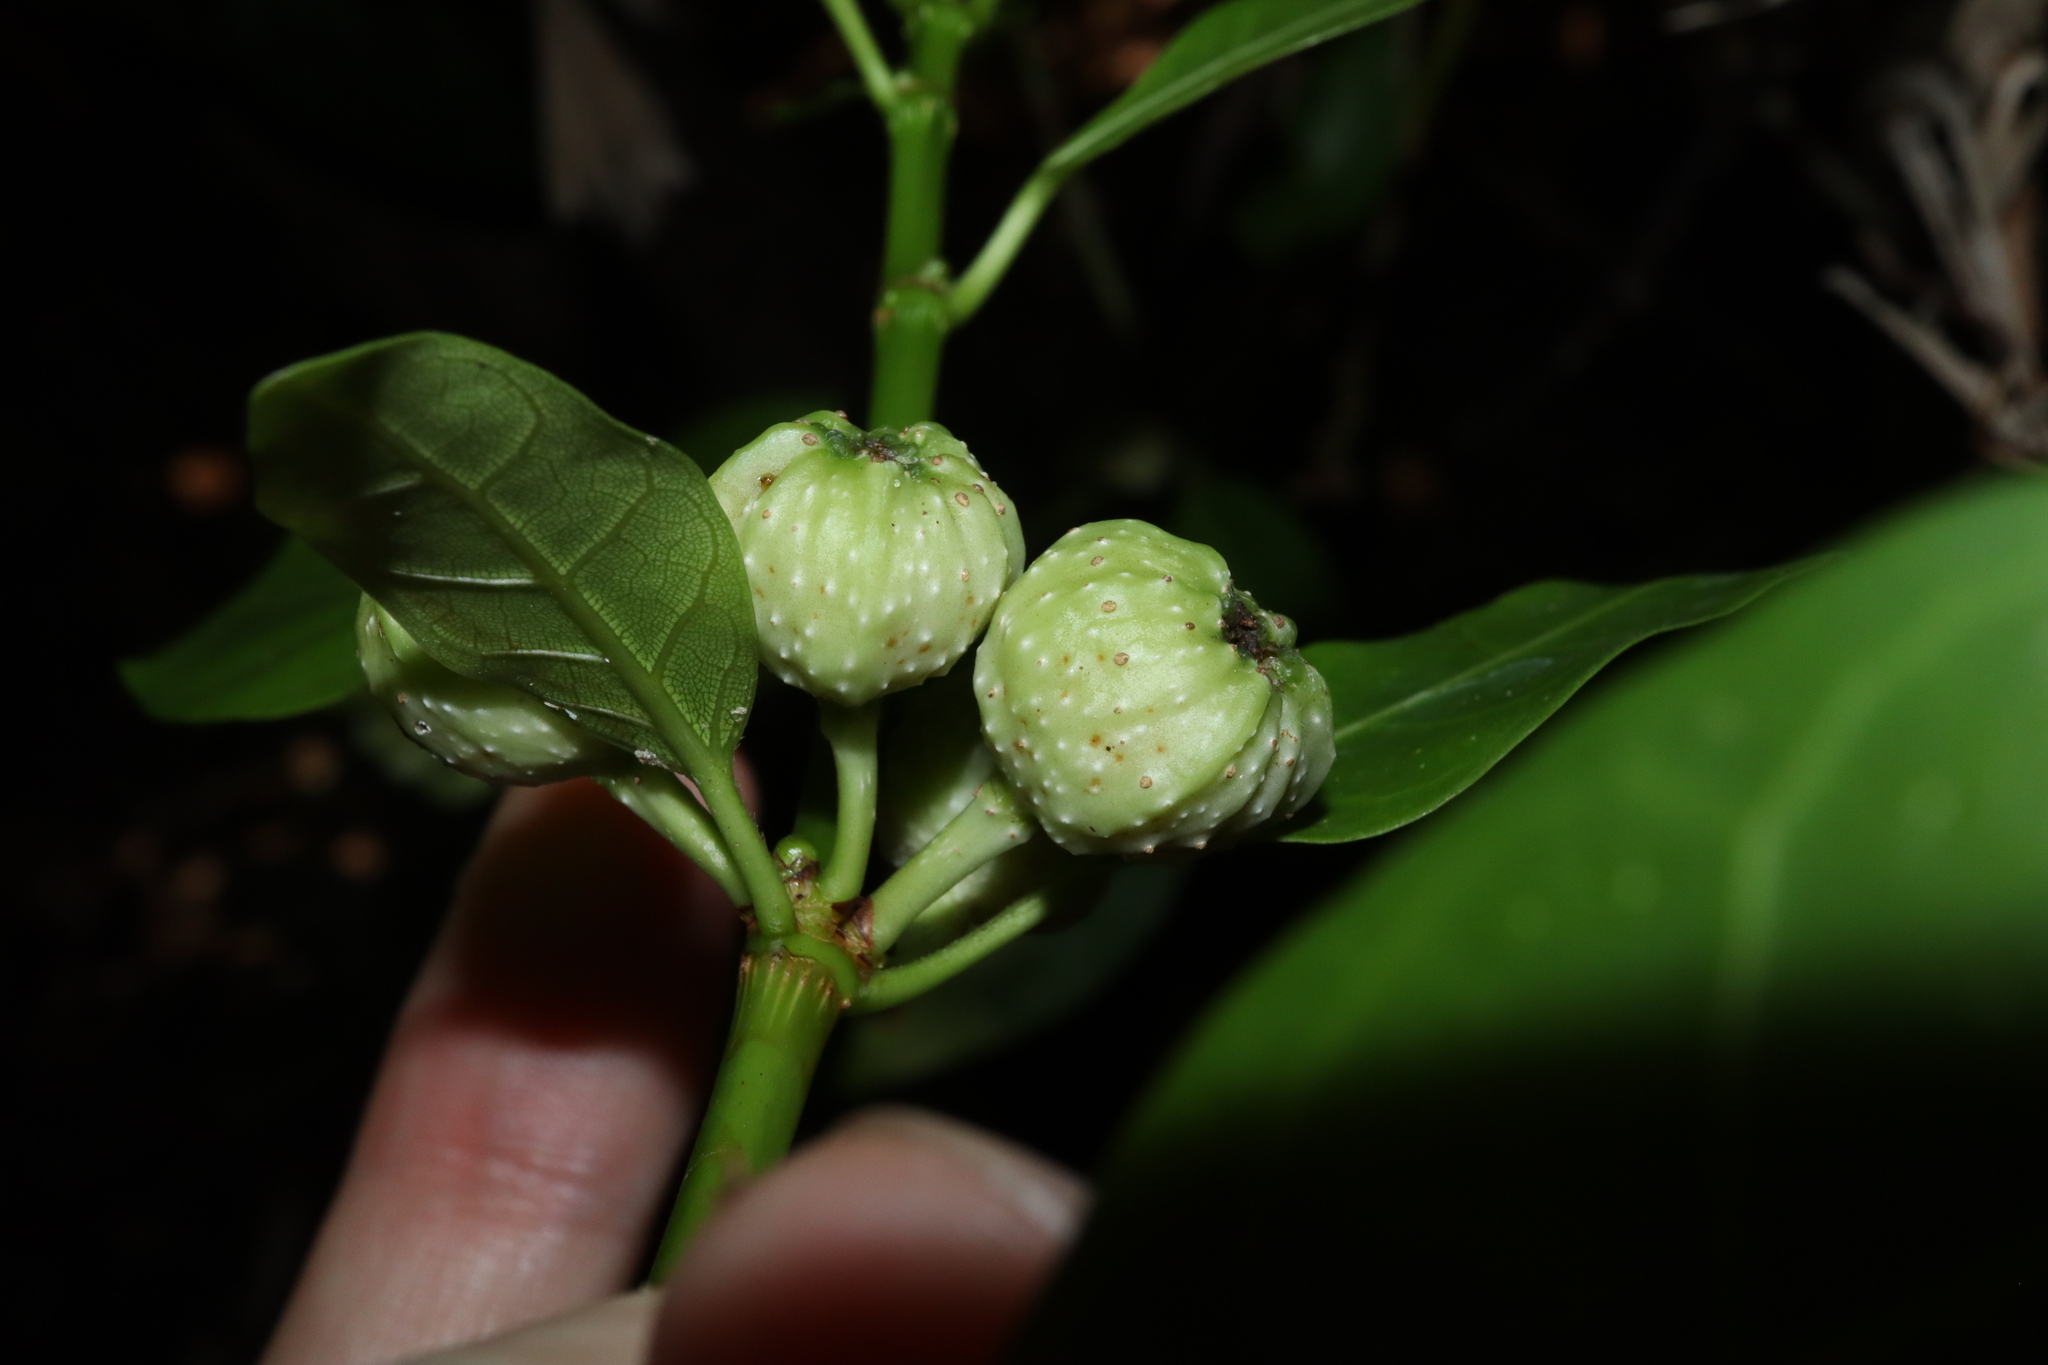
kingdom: Plantae
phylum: Tracheophyta
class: Magnoliopsida
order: Rosales
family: Moraceae
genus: Ficus
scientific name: Ficus septica
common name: Septic fig
